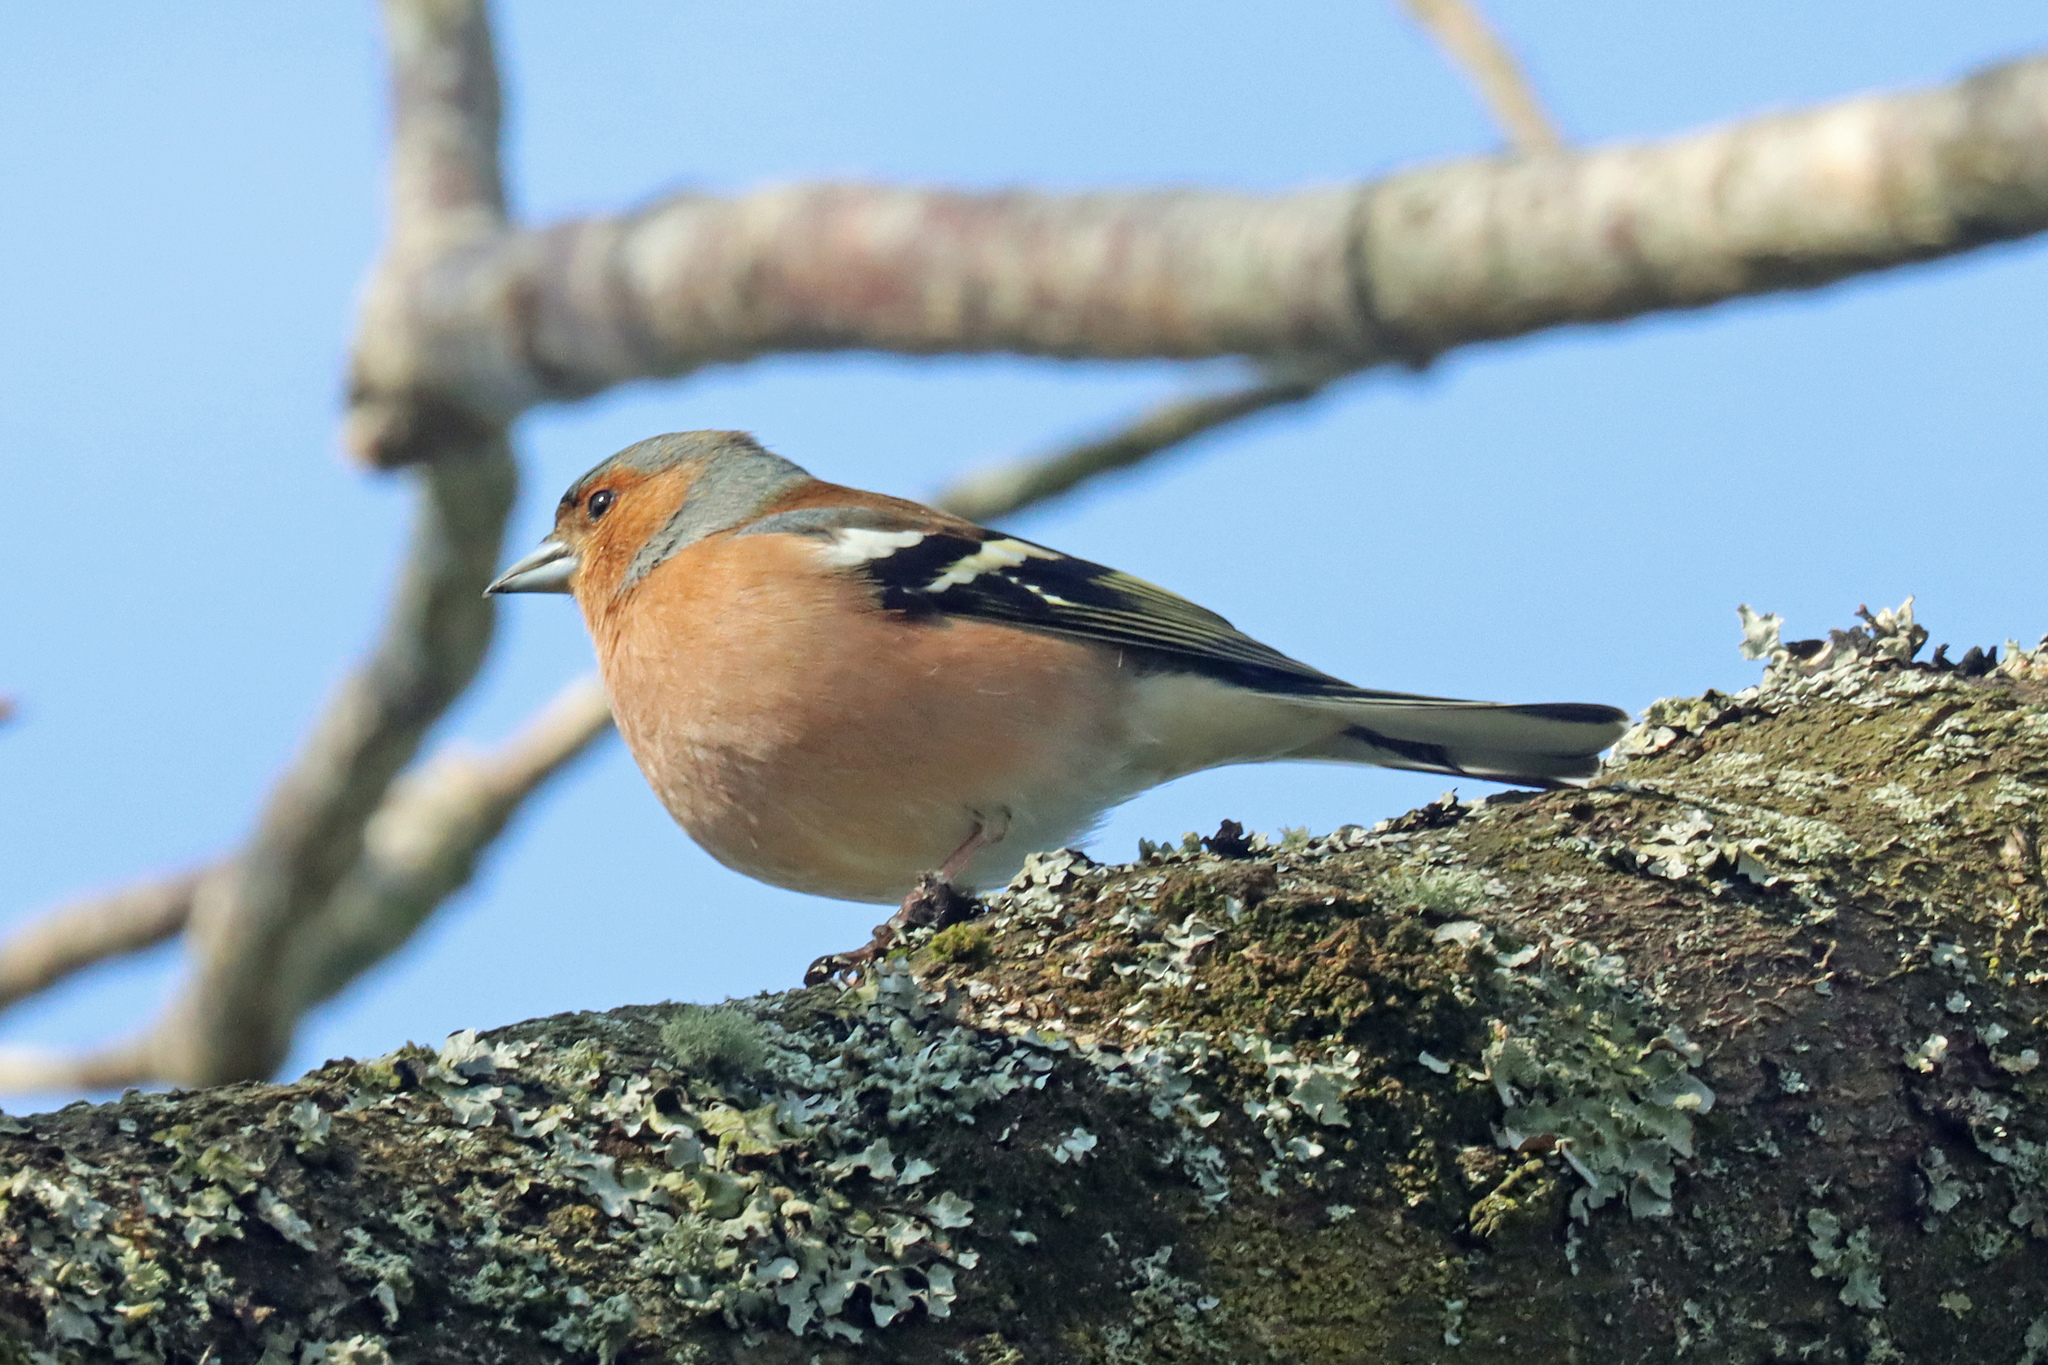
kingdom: Animalia
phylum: Chordata
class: Aves
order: Passeriformes
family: Fringillidae
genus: Fringilla
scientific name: Fringilla coelebs
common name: Common chaffinch
